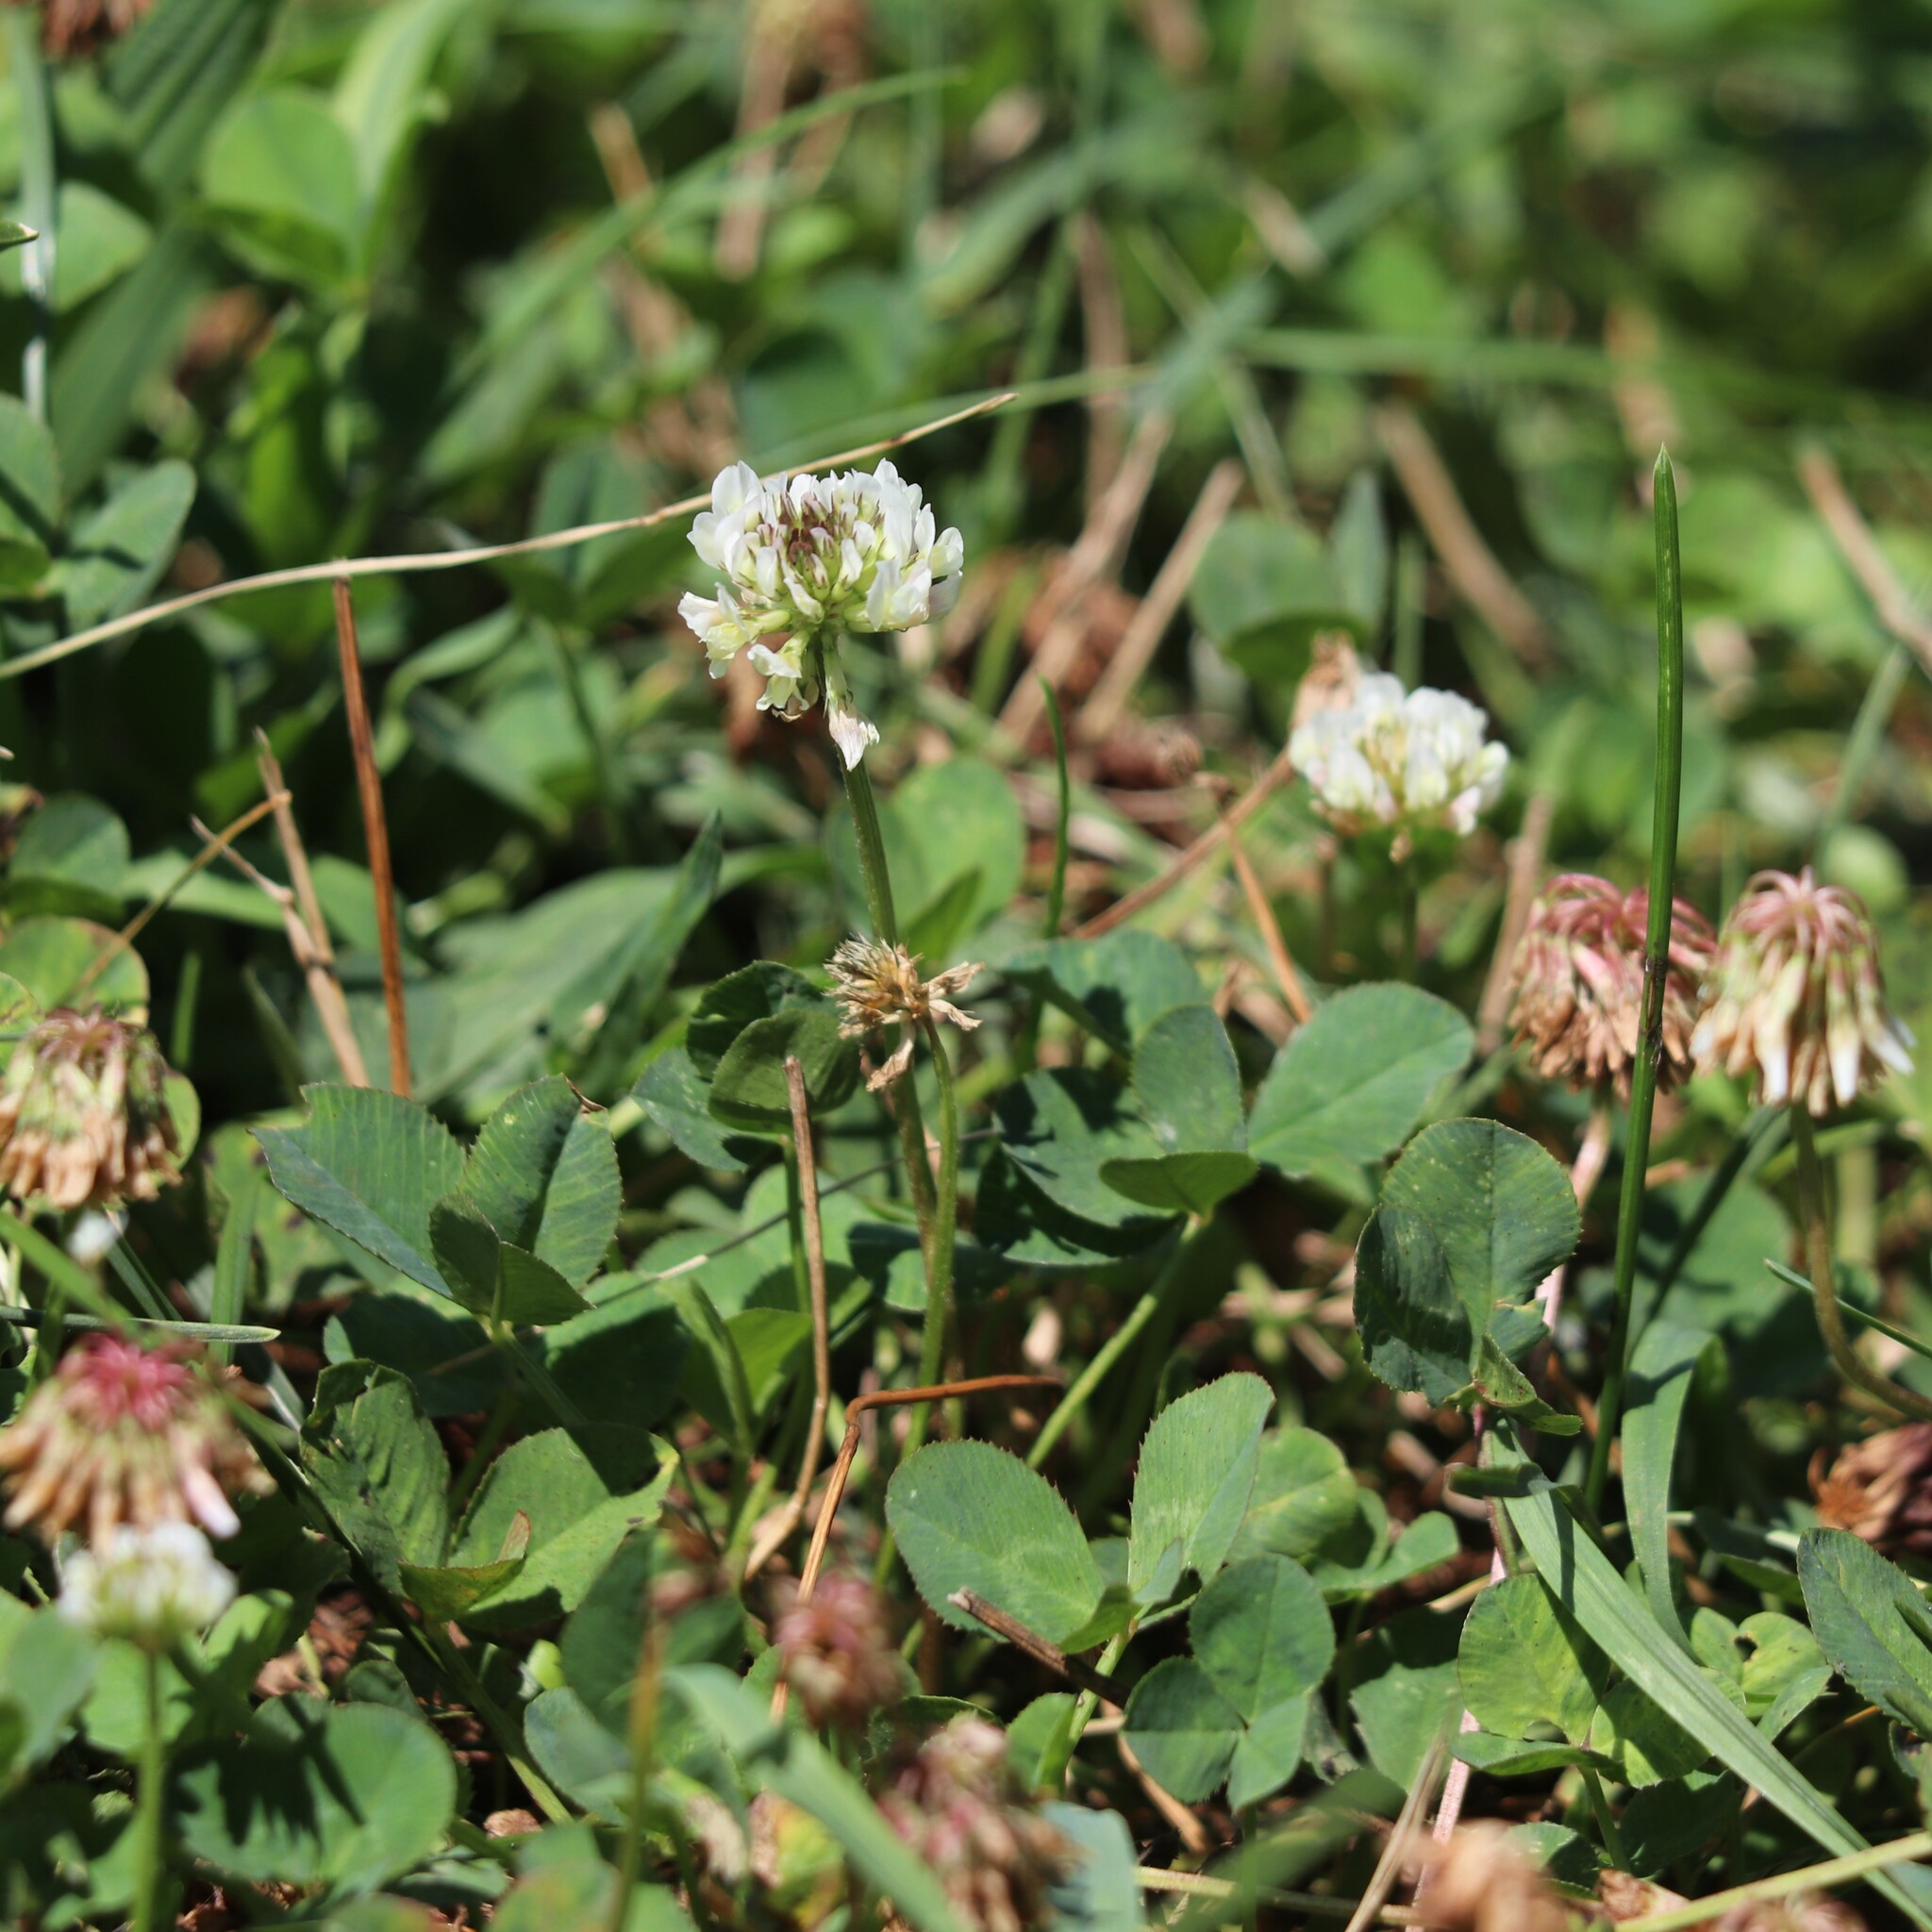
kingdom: Plantae
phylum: Tracheophyta
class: Magnoliopsida
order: Fabales
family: Fabaceae
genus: Trifolium
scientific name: Trifolium repens
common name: White clover
